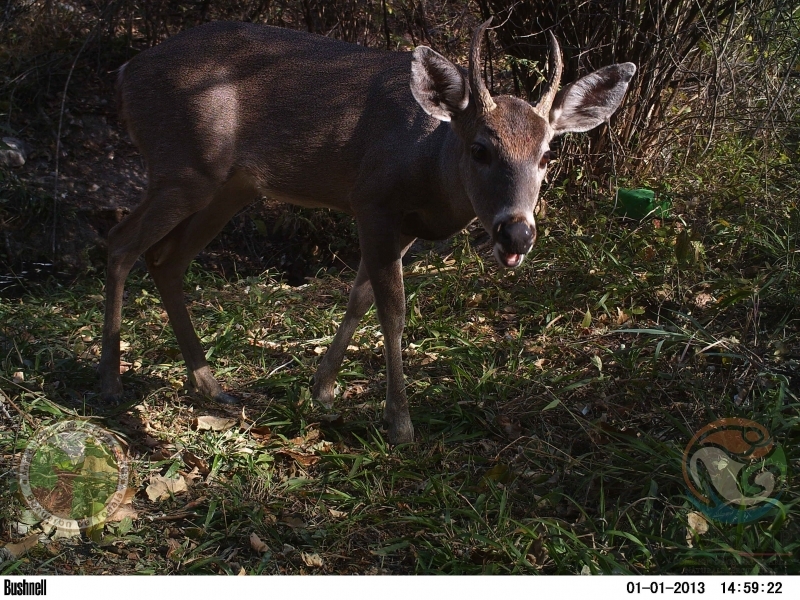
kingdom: Animalia
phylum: Chordata
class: Mammalia
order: Artiodactyla
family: Cervidae
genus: Odocoileus
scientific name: Odocoileus virginianus
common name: White-tailed deer
